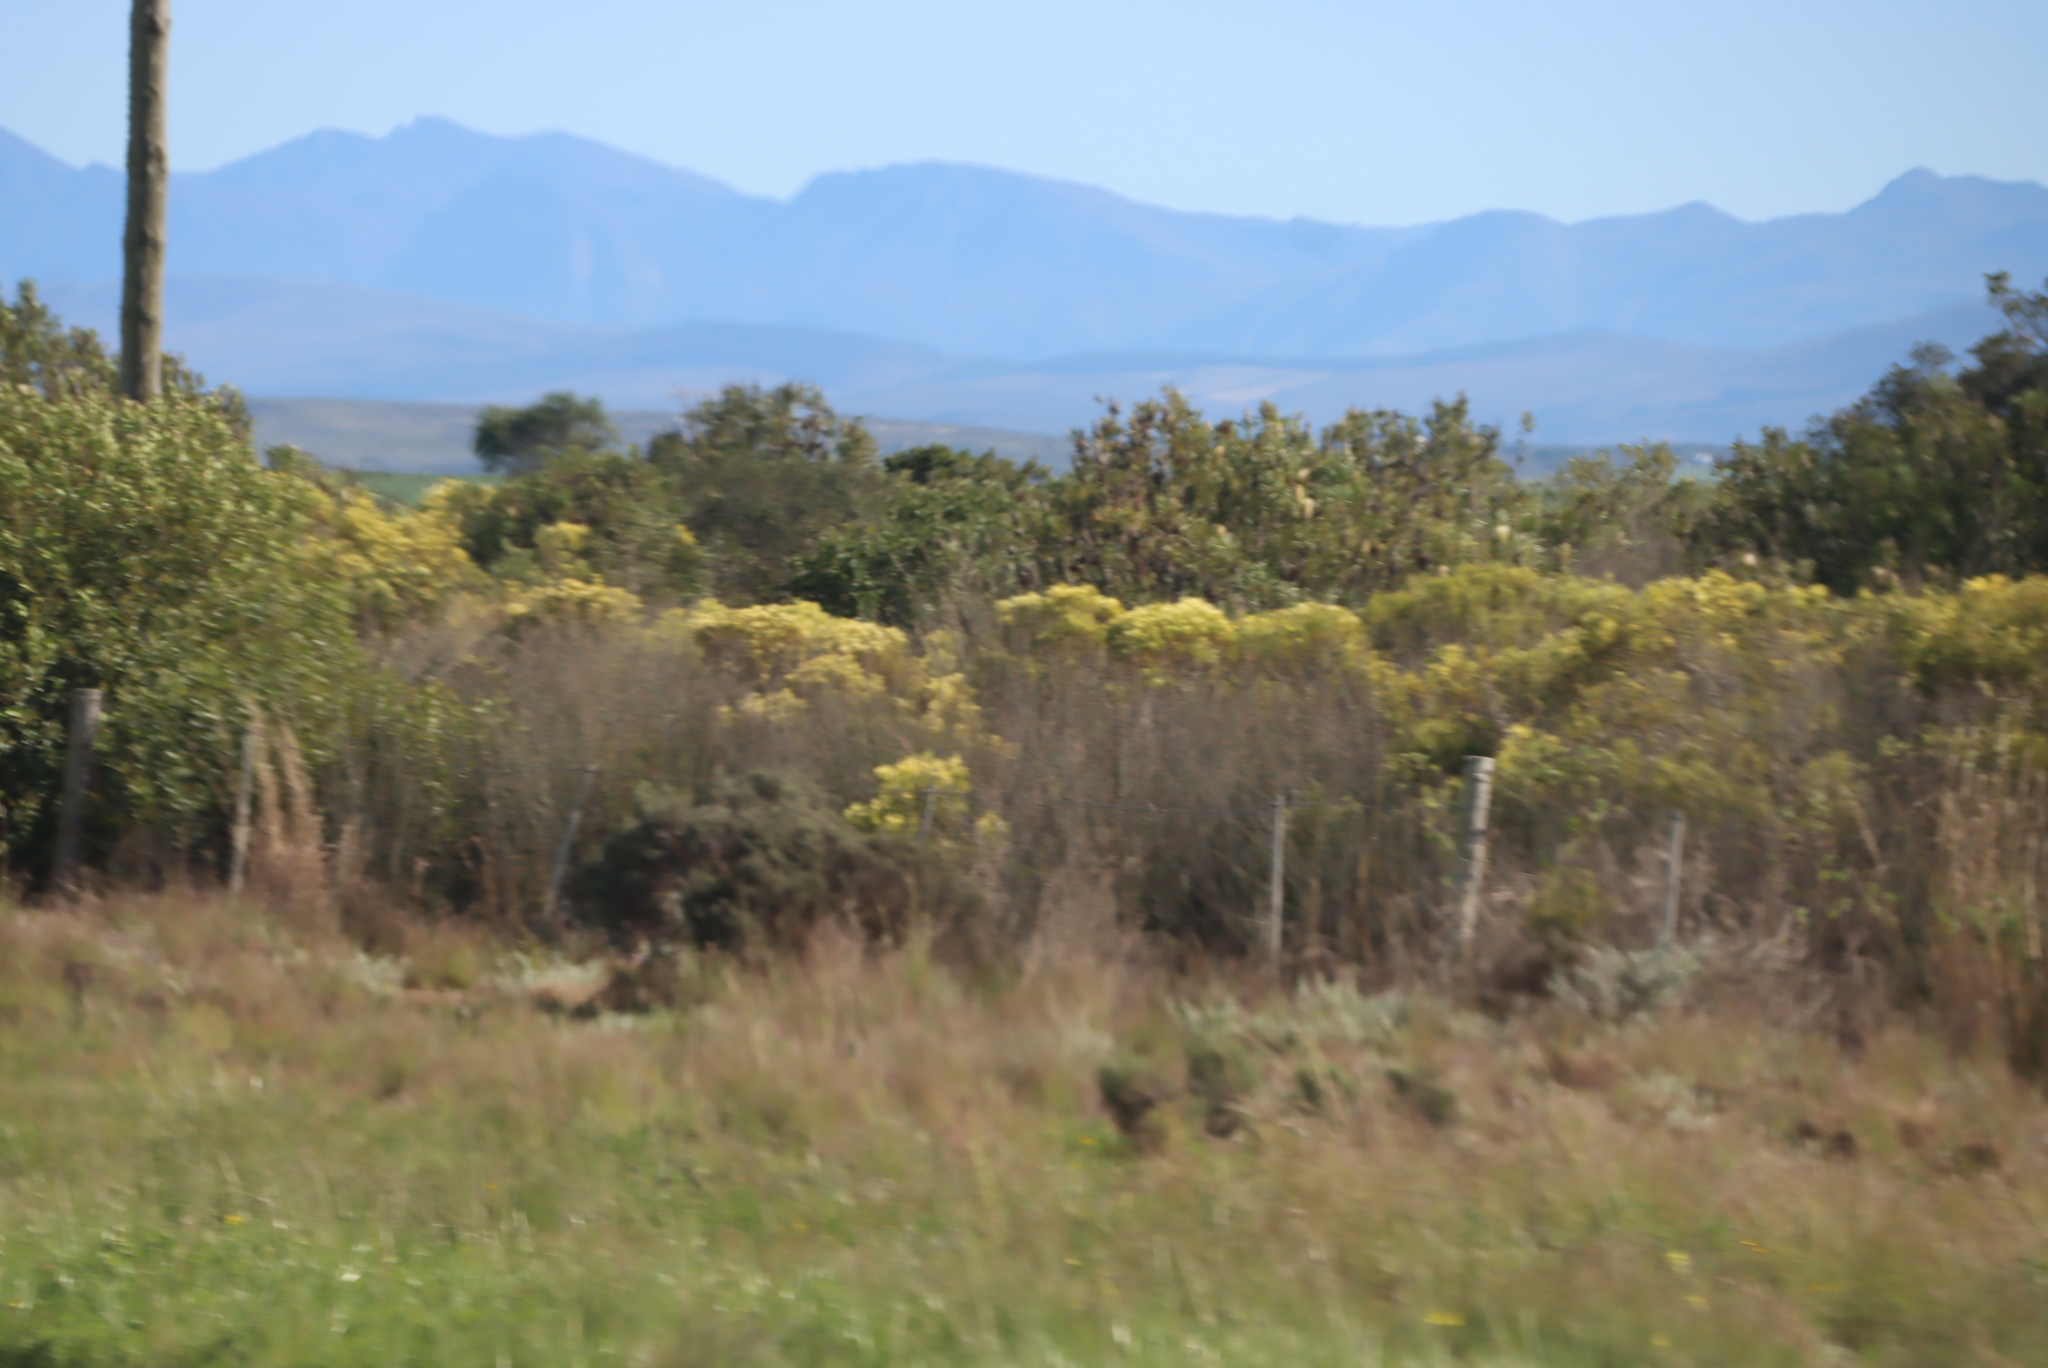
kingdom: Plantae
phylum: Tracheophyta
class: Magnoliopsida
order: Proteales
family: Proteaceae
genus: Protea
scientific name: Protea repens
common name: Sugarbush
